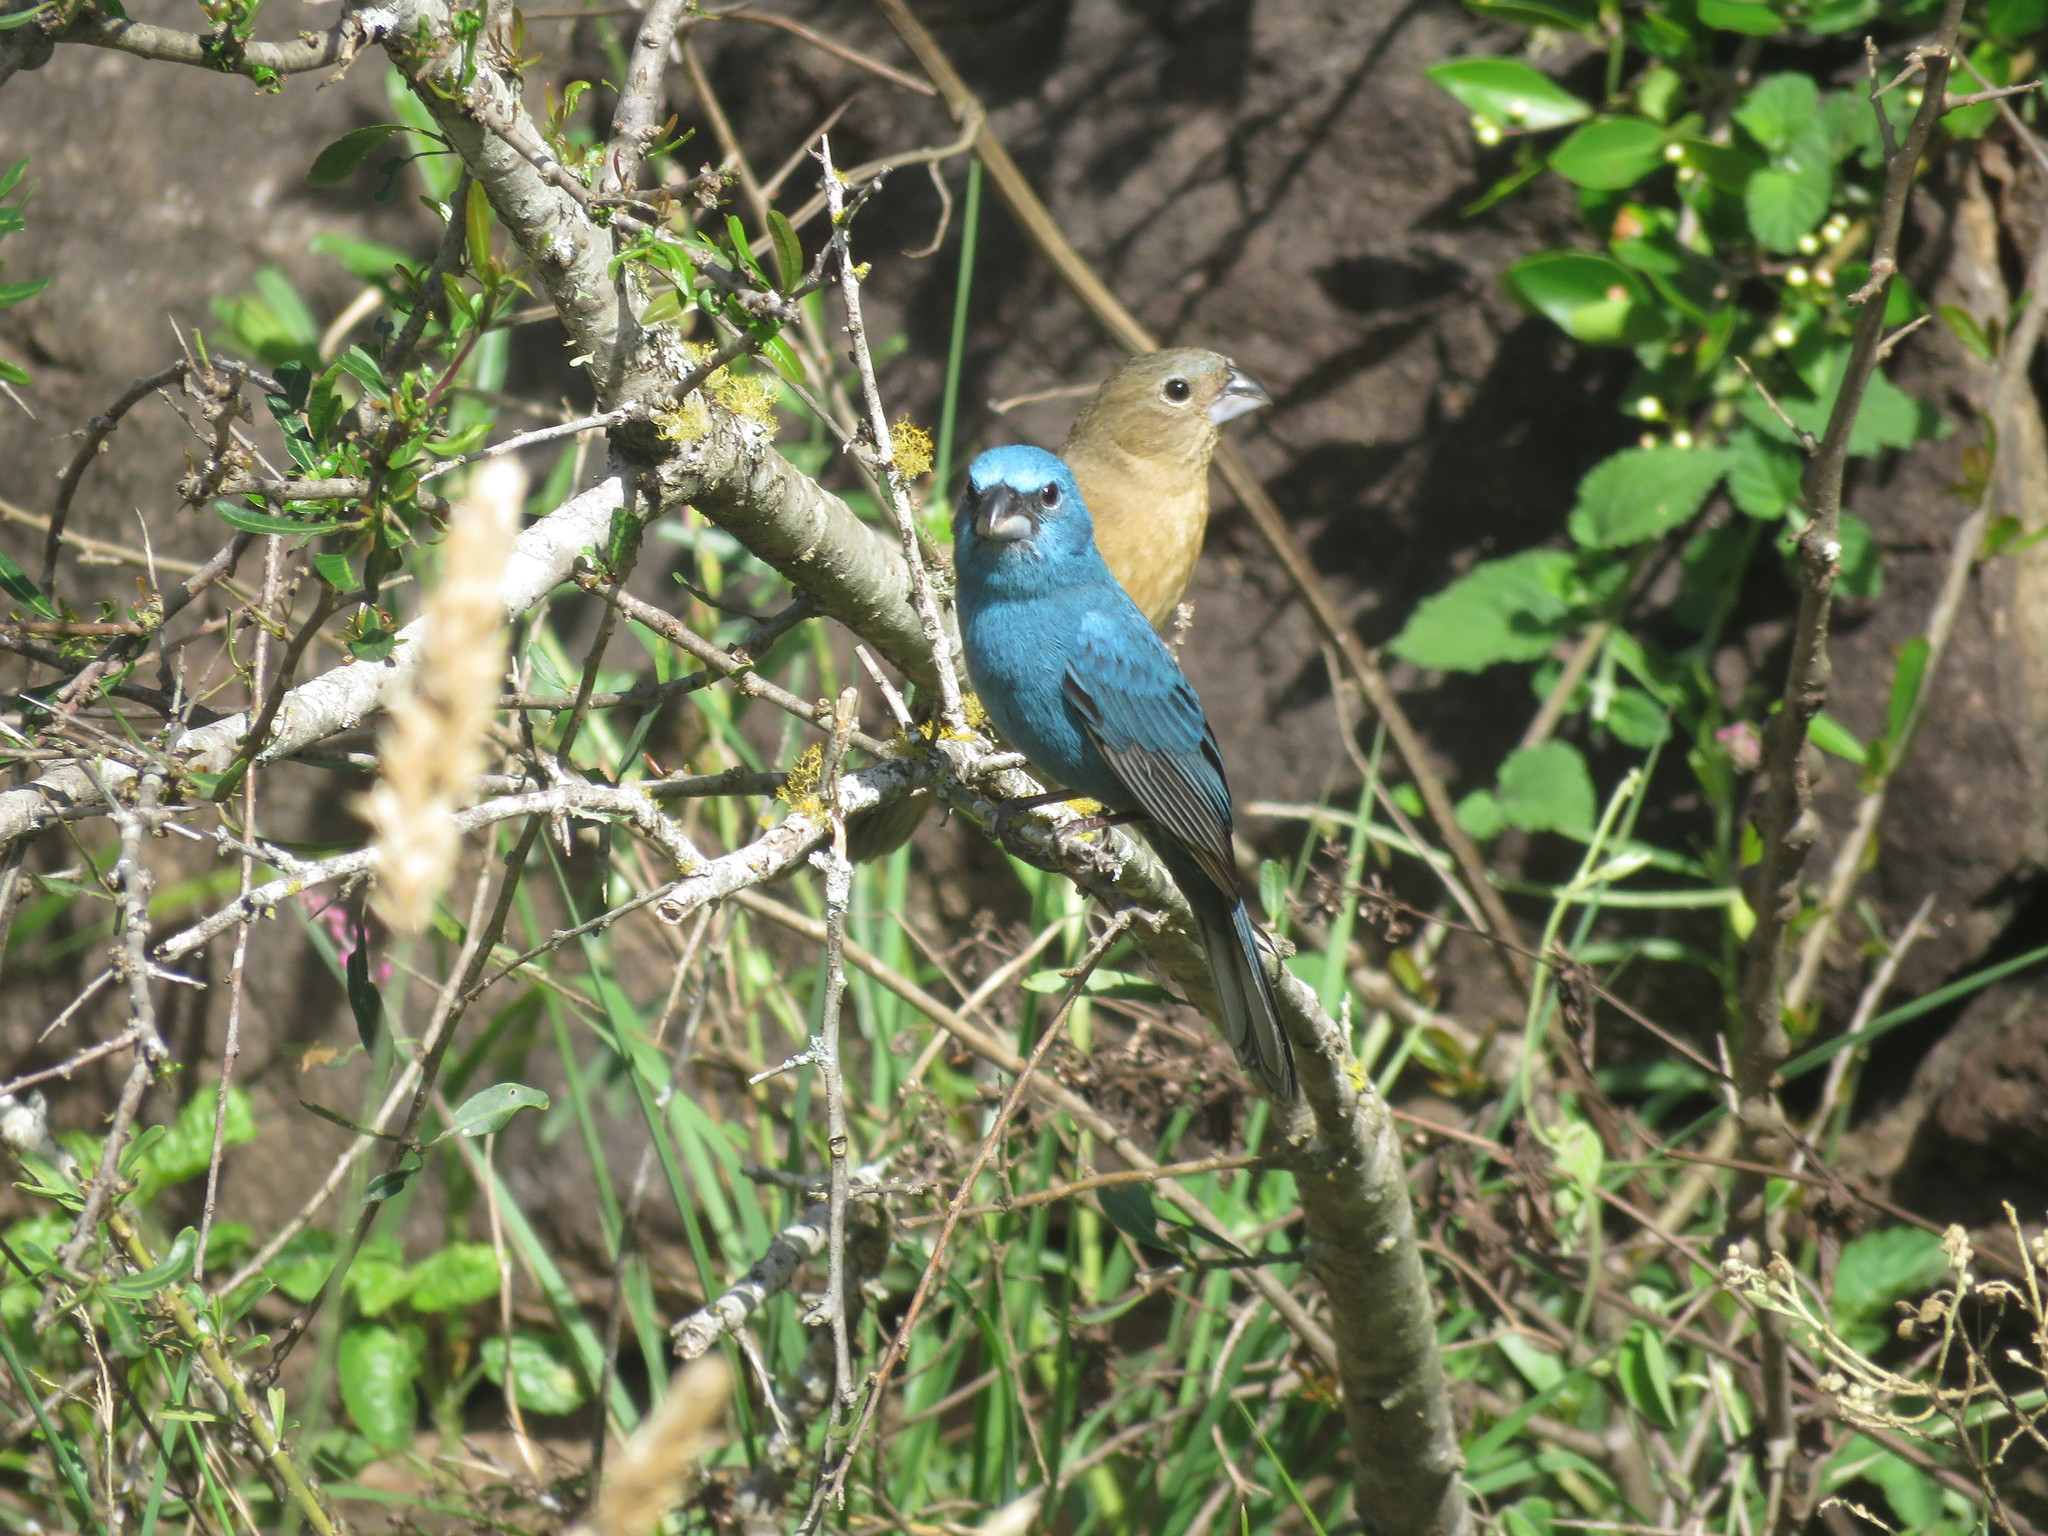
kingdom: Animalia
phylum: Chordata
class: Aves
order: Passeriformes
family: Cardinalidae
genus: Cyanoloxia
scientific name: Cyanoloxia glaucocaerulea
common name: Glaucous-blue grosbeak
